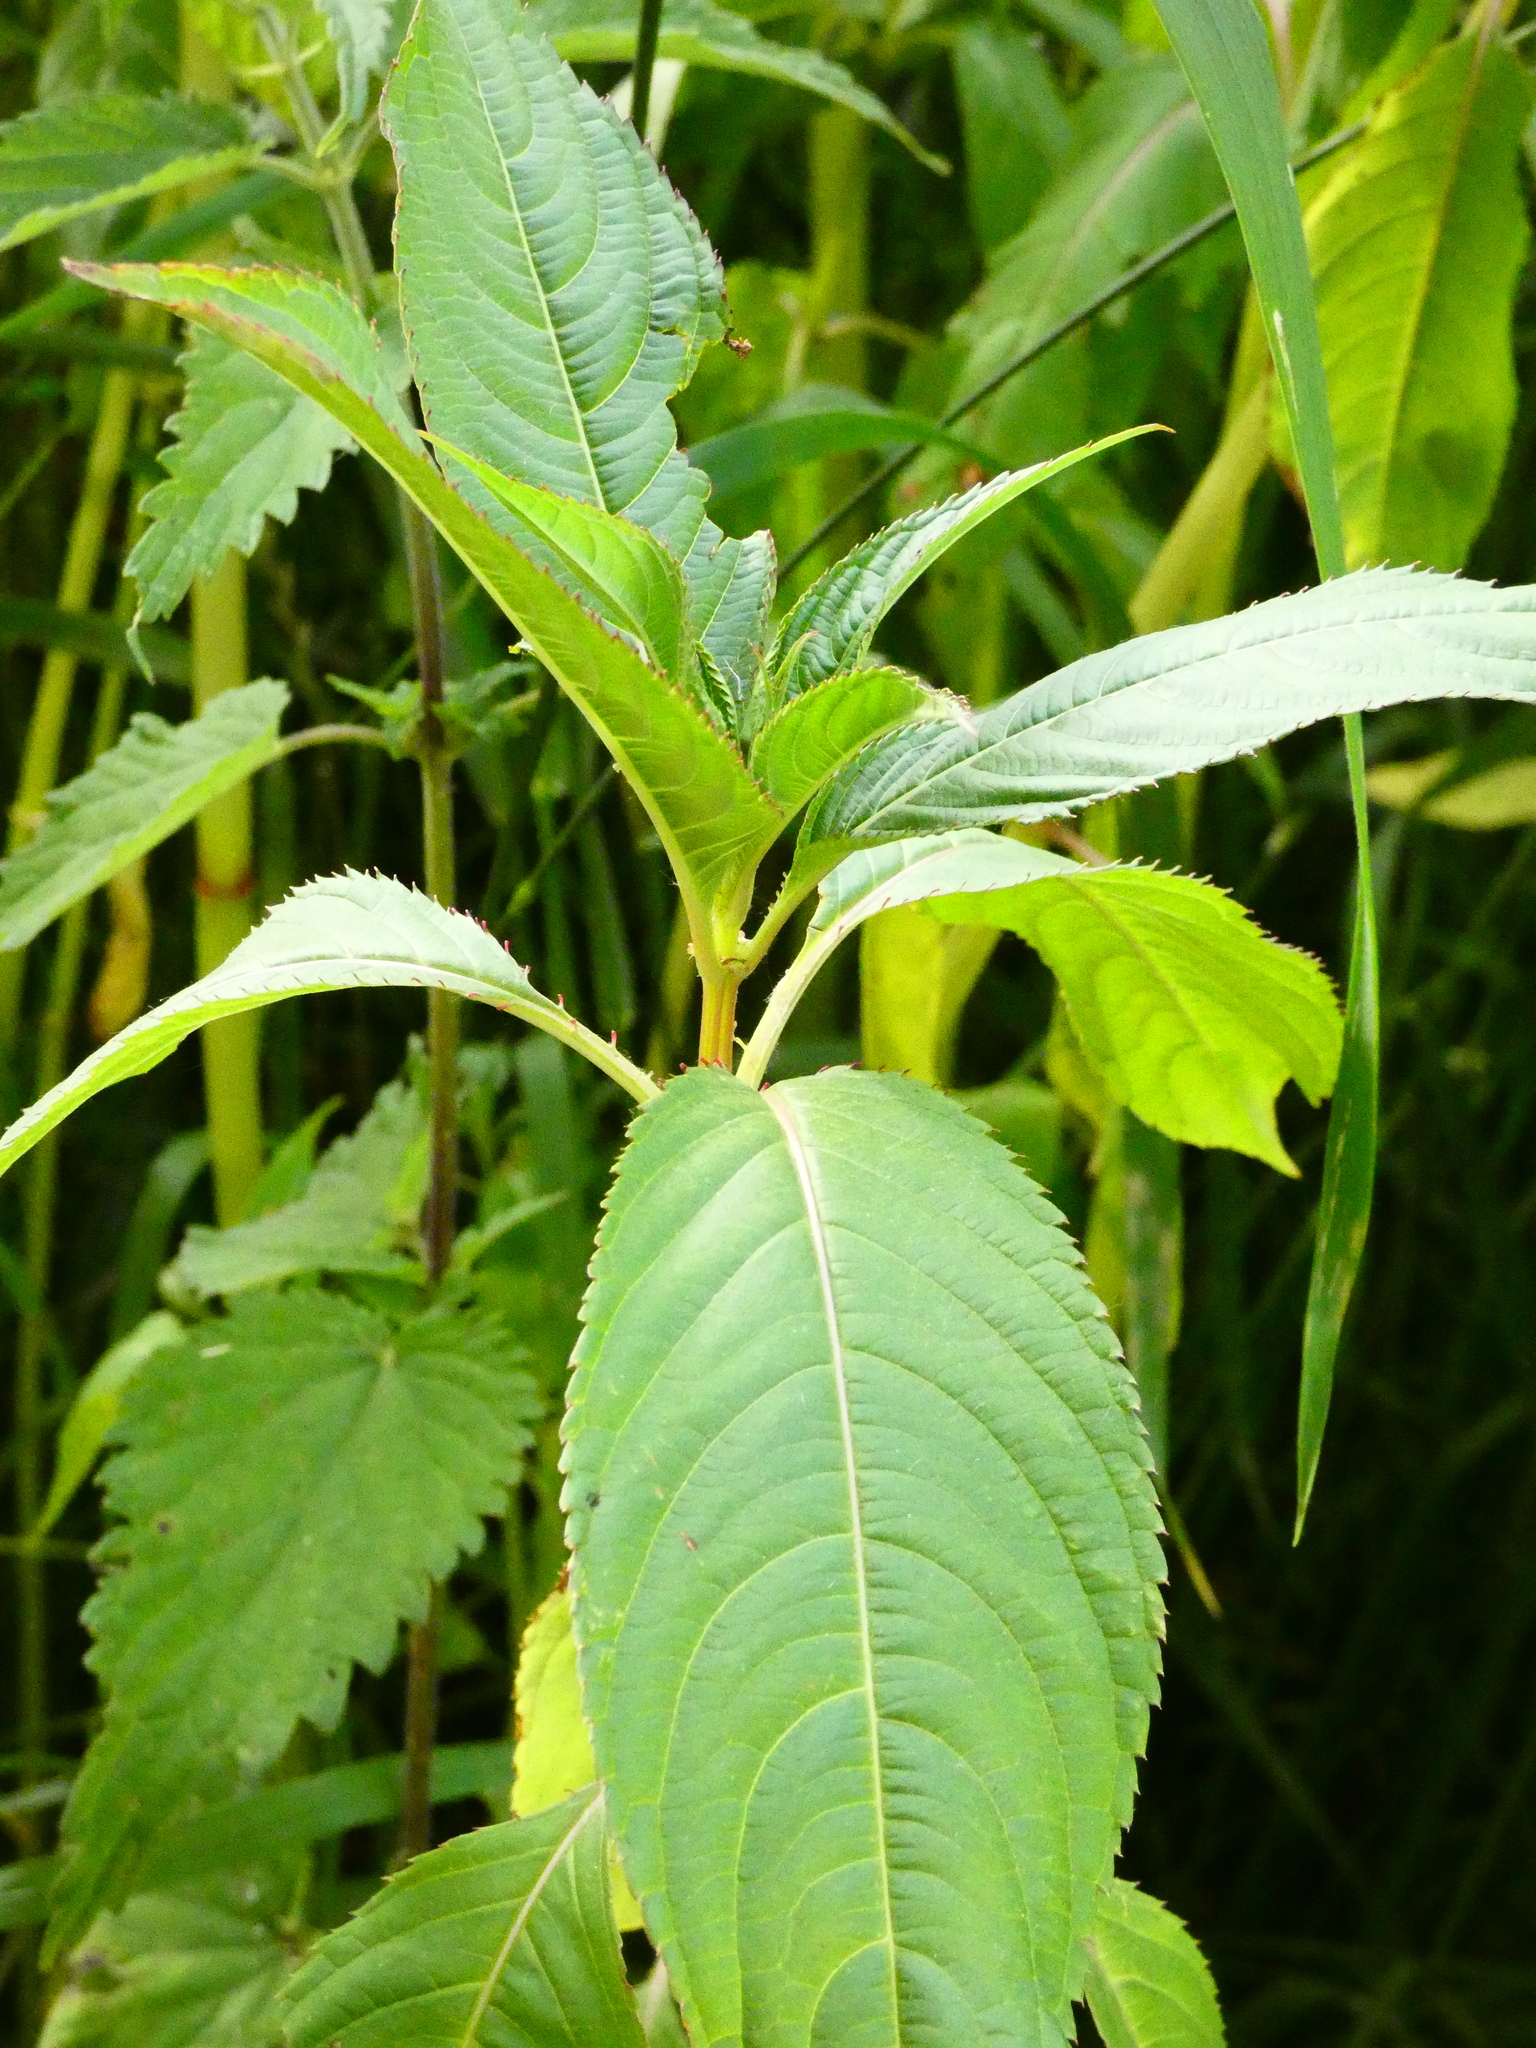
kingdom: Plantae
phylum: Tracheophyta
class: Magnoliopsida
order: Ericales
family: Balsaminaceae
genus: Impatiens
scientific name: Impatiens glandulifera
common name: Himalayan balsam
